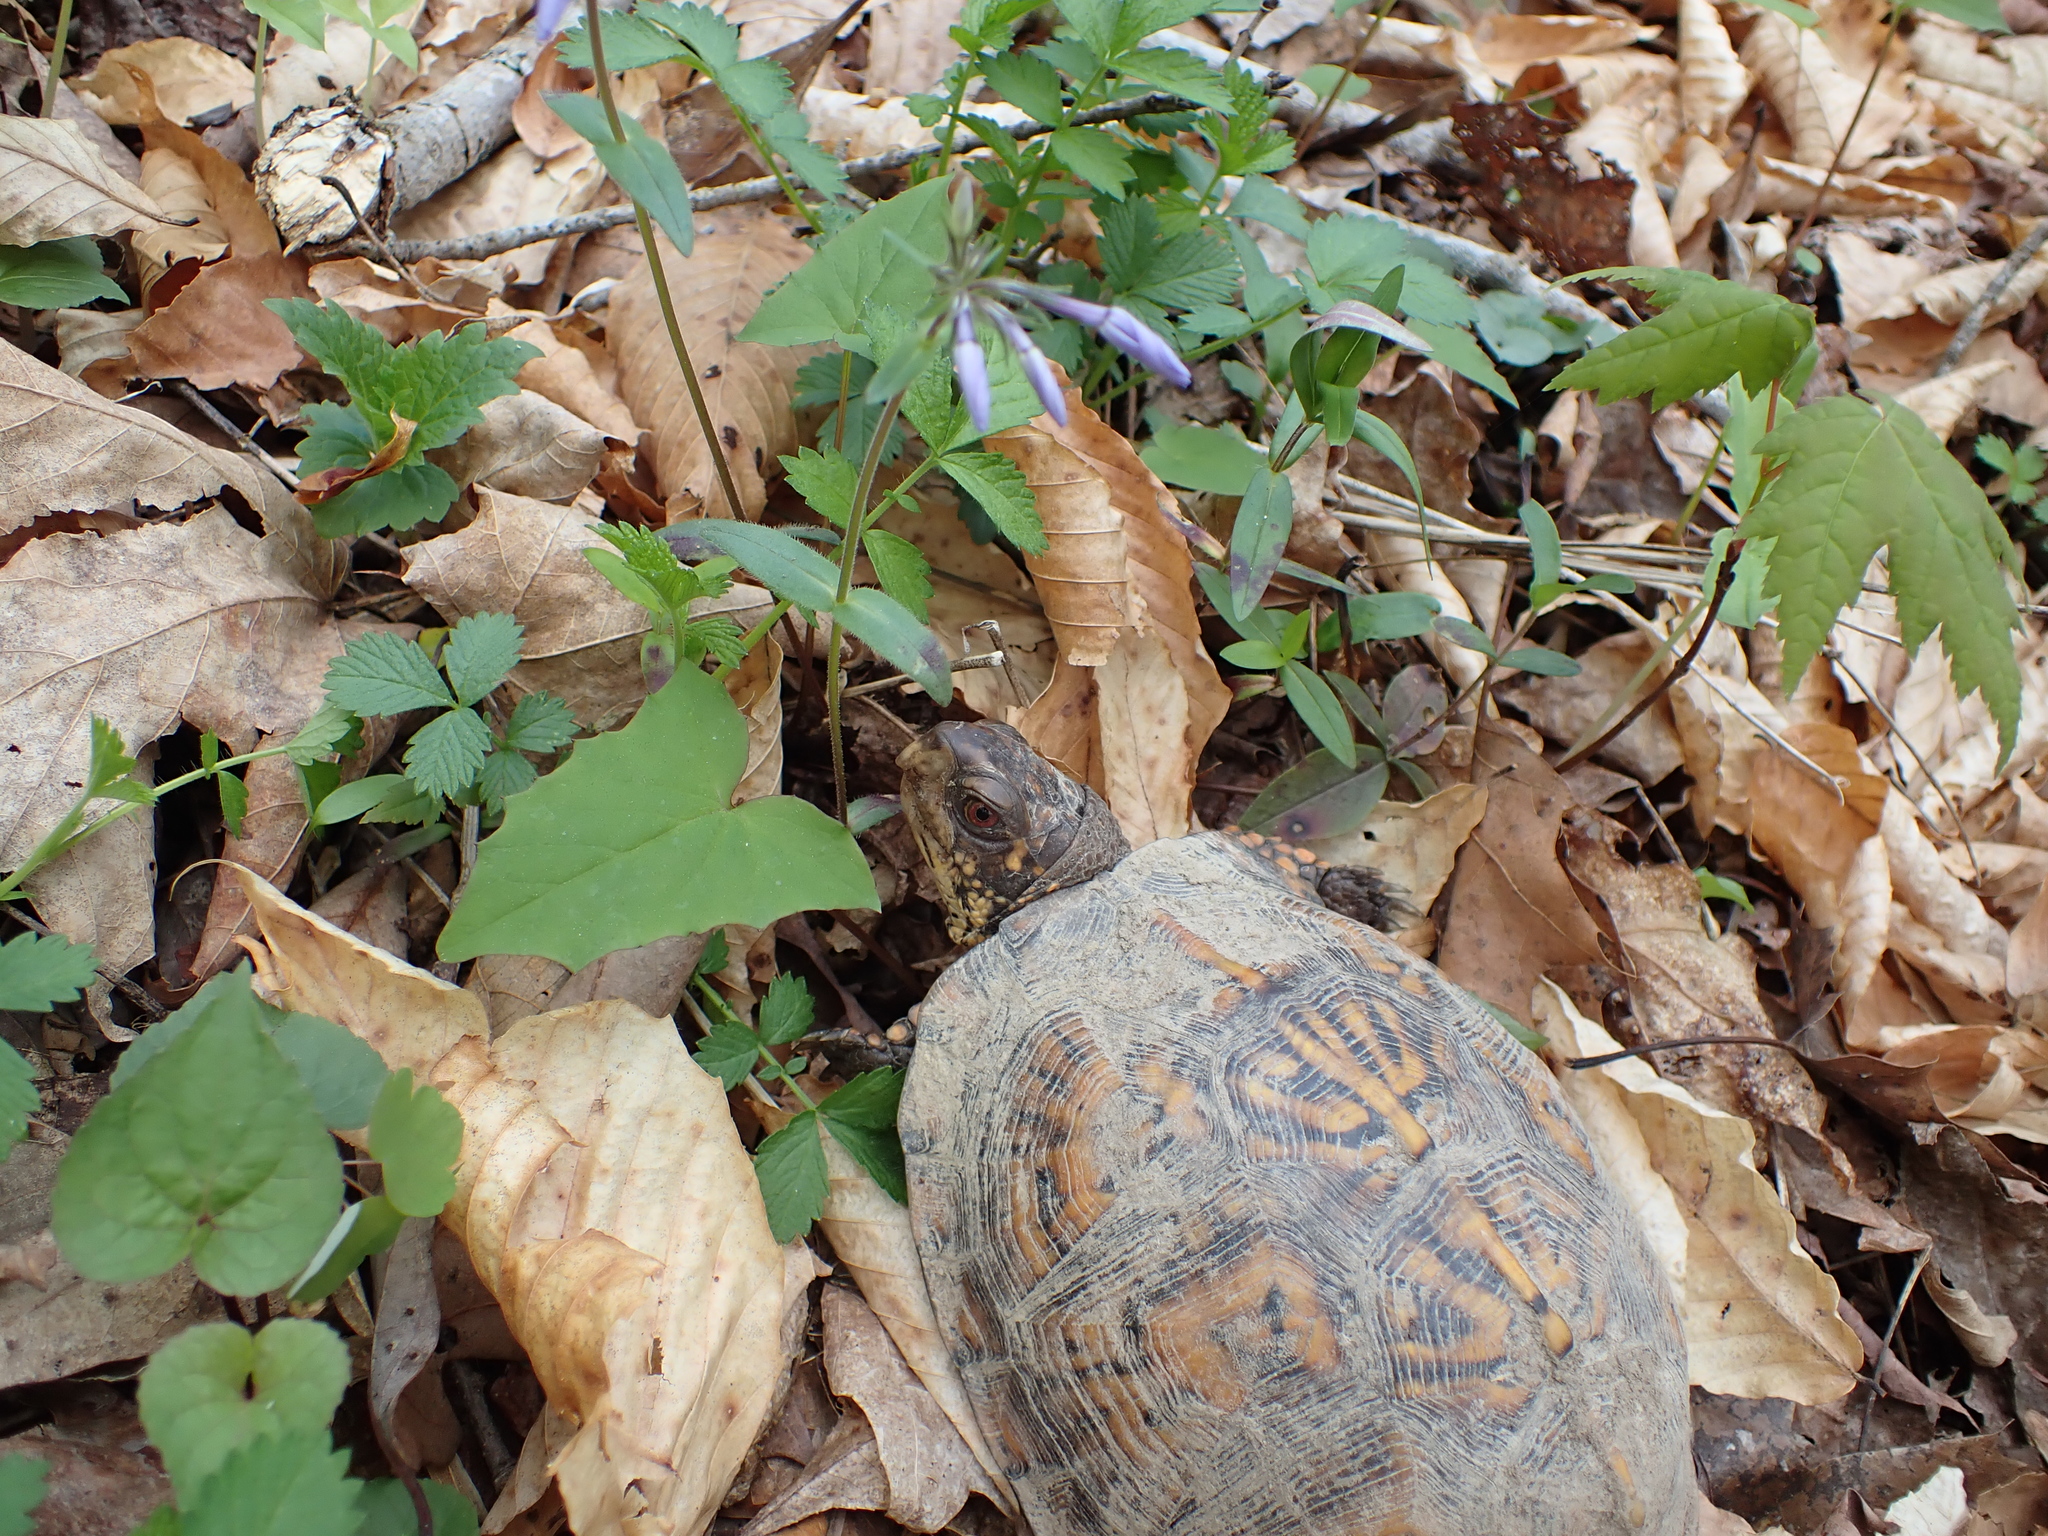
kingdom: Animalia
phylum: Chordata
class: Testudines
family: Emydidae
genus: Terrapene
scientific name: Terrapene carolina
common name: Common box turtle
